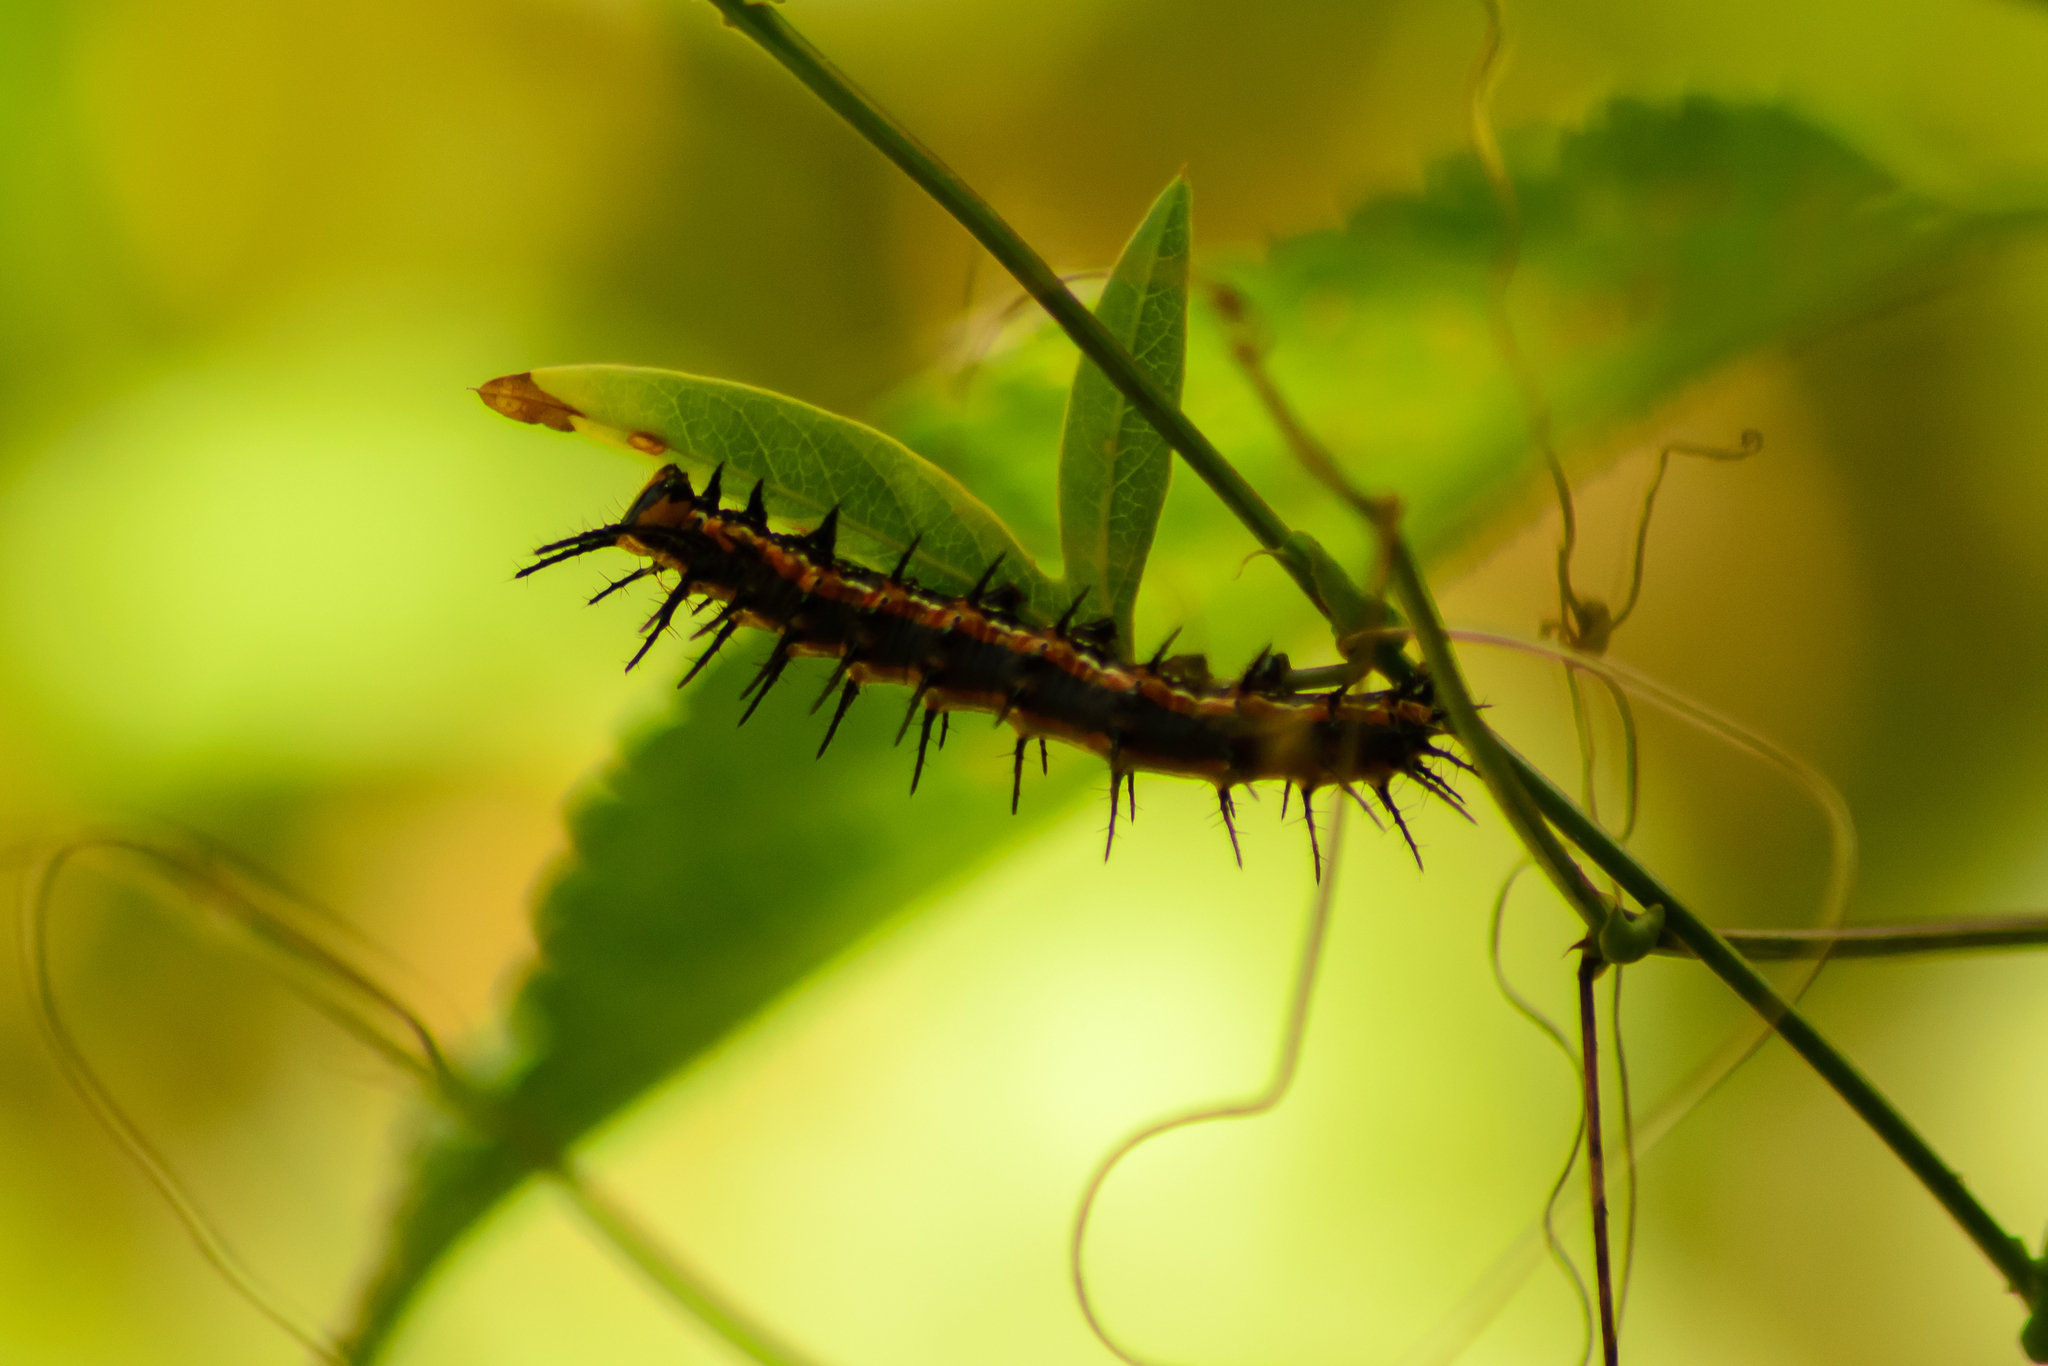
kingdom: Animalia
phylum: Arthropoda
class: Insecta
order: Lepidoptera
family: Nymphalidae
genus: Dione
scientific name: Dione vanillae
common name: Gulf fritillary
